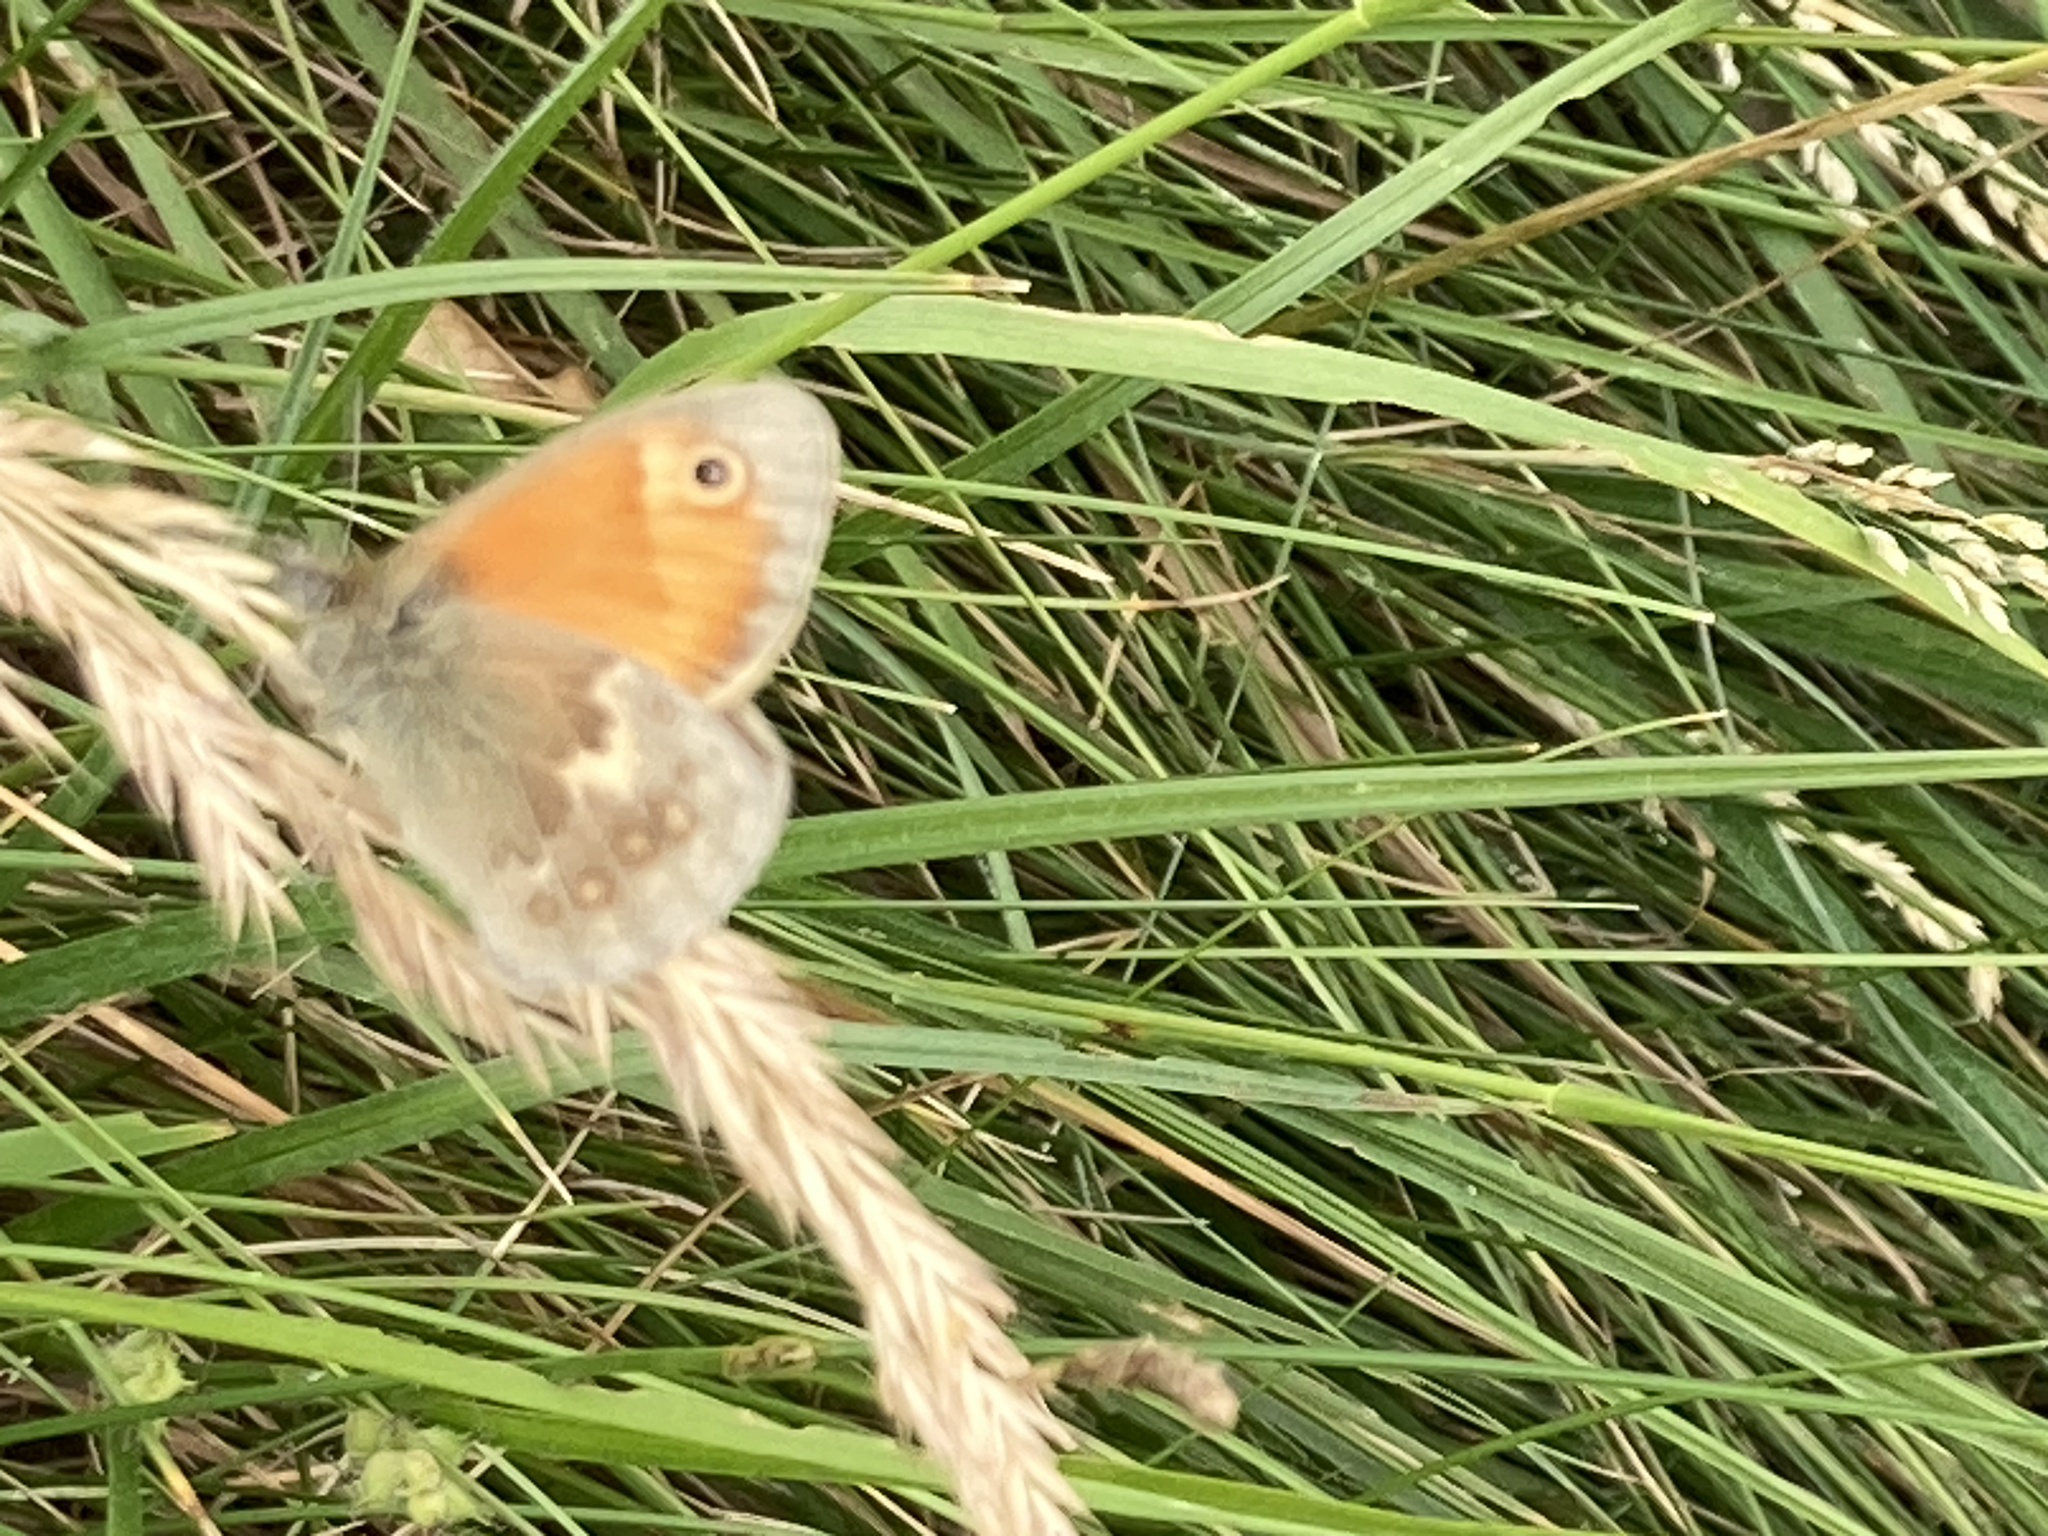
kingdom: Animalia
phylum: Arthropoda
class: Insecta
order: Lepidoptera
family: Nymphalidae
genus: Coenonympha
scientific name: Coenonympha pamphilus
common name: Small heath
